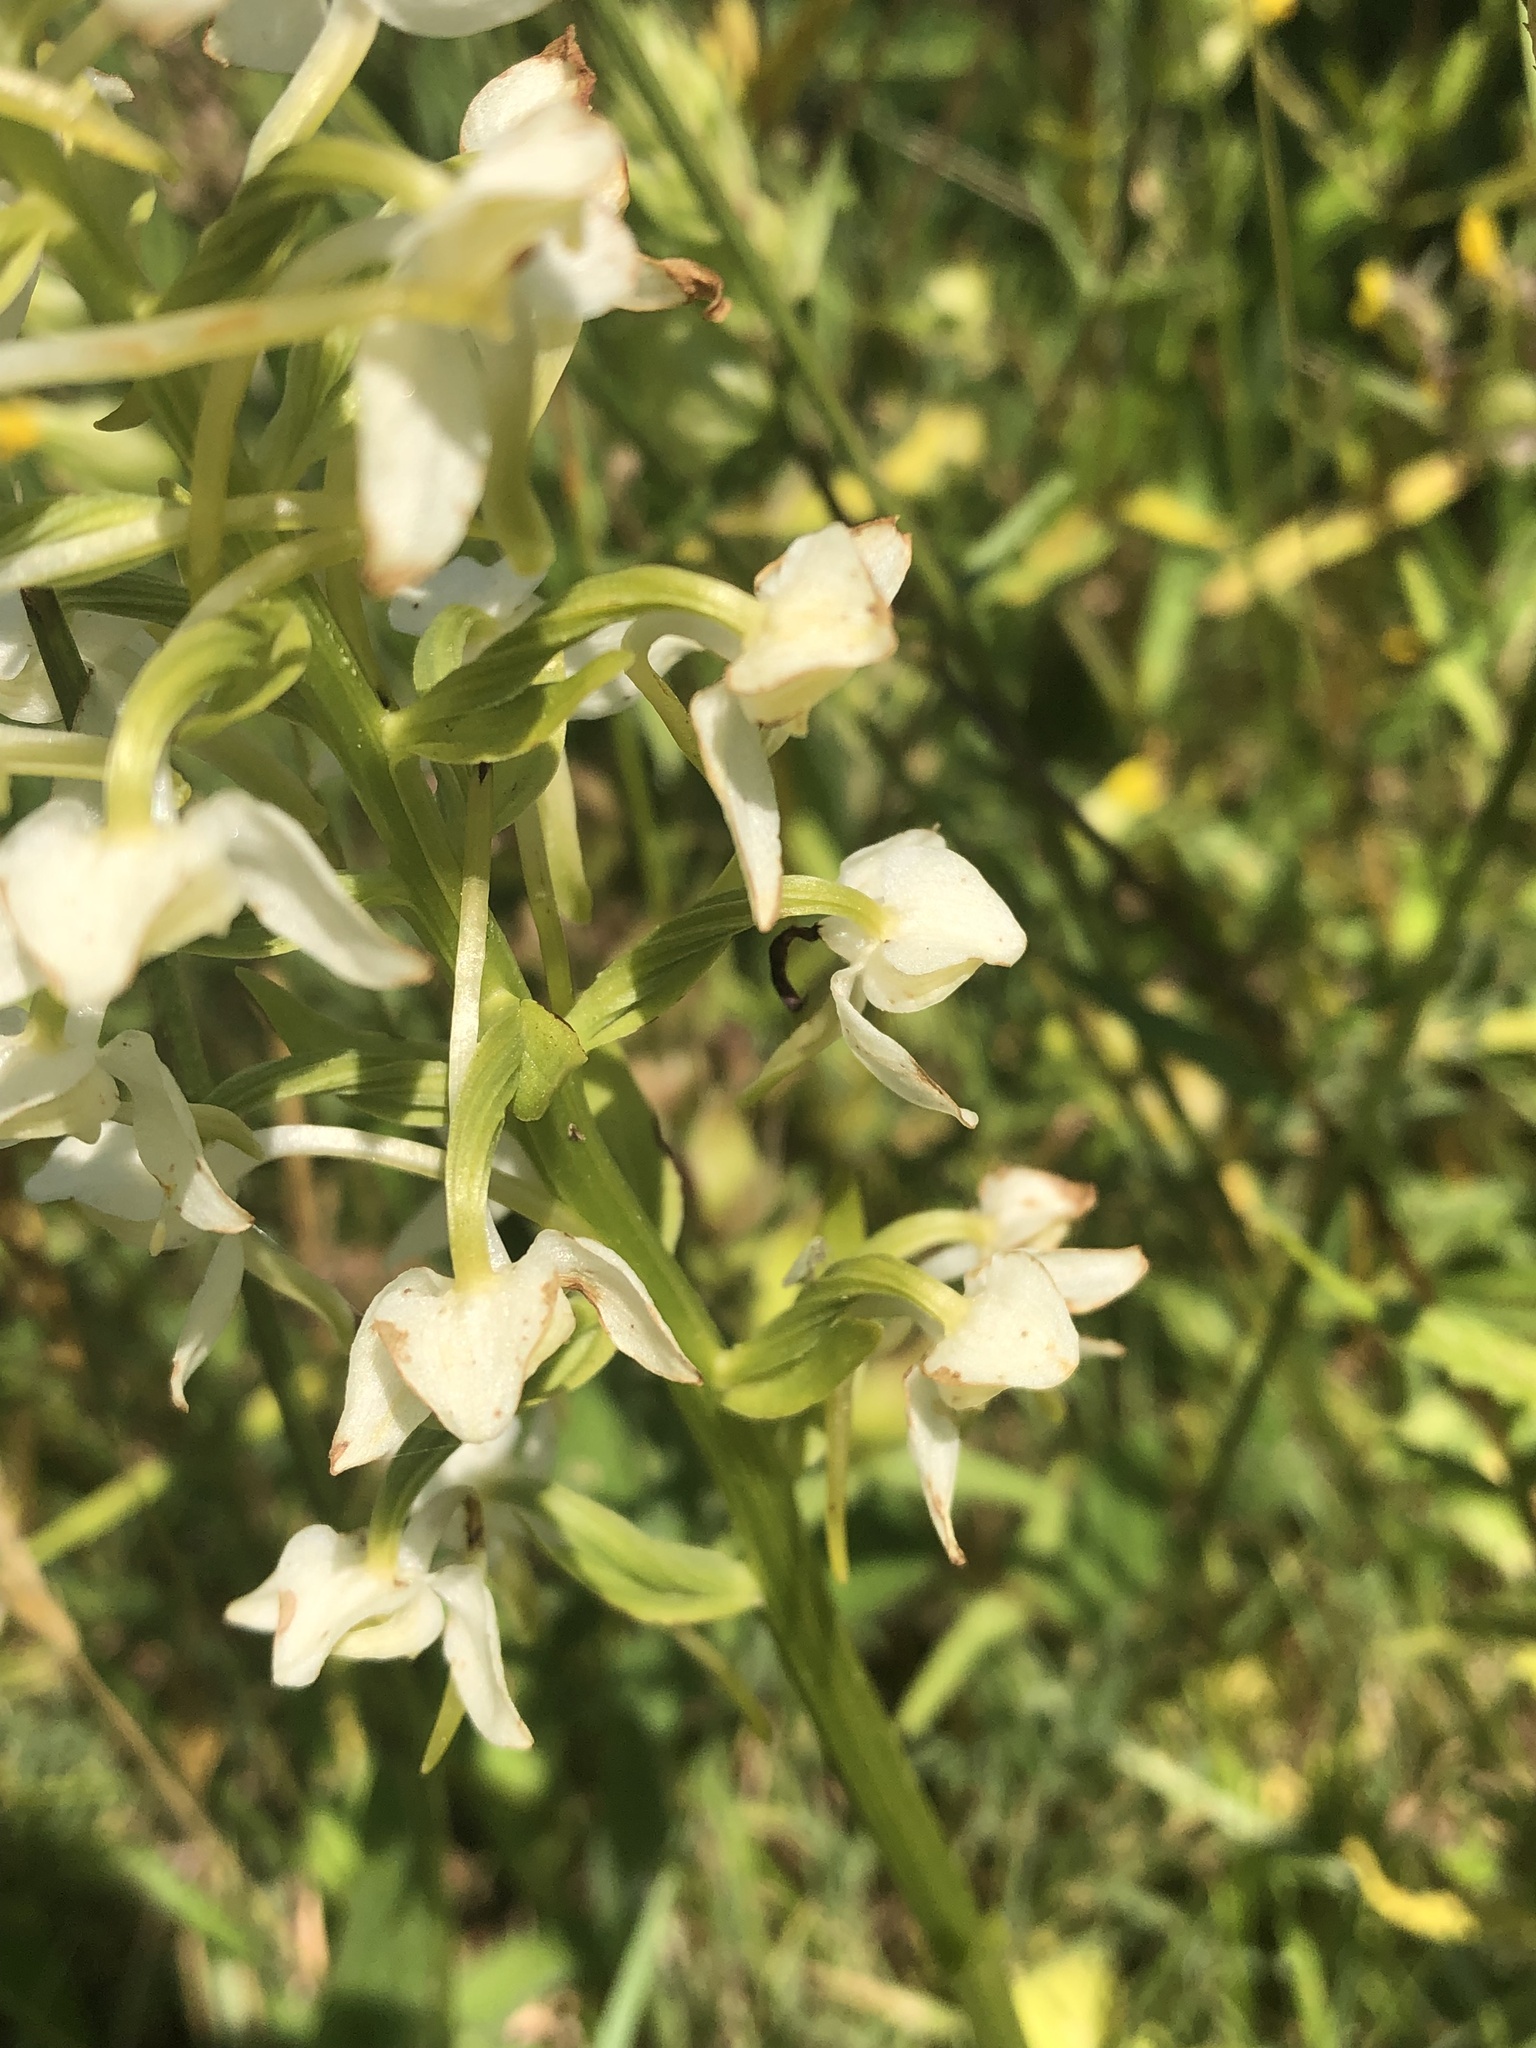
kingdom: Plantae
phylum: Tracheophyta
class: Liliopsida
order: Asparagales
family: Orchidaceae
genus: Platanthera
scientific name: Platanthera chlorantha
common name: Greater butterfly-orchid
